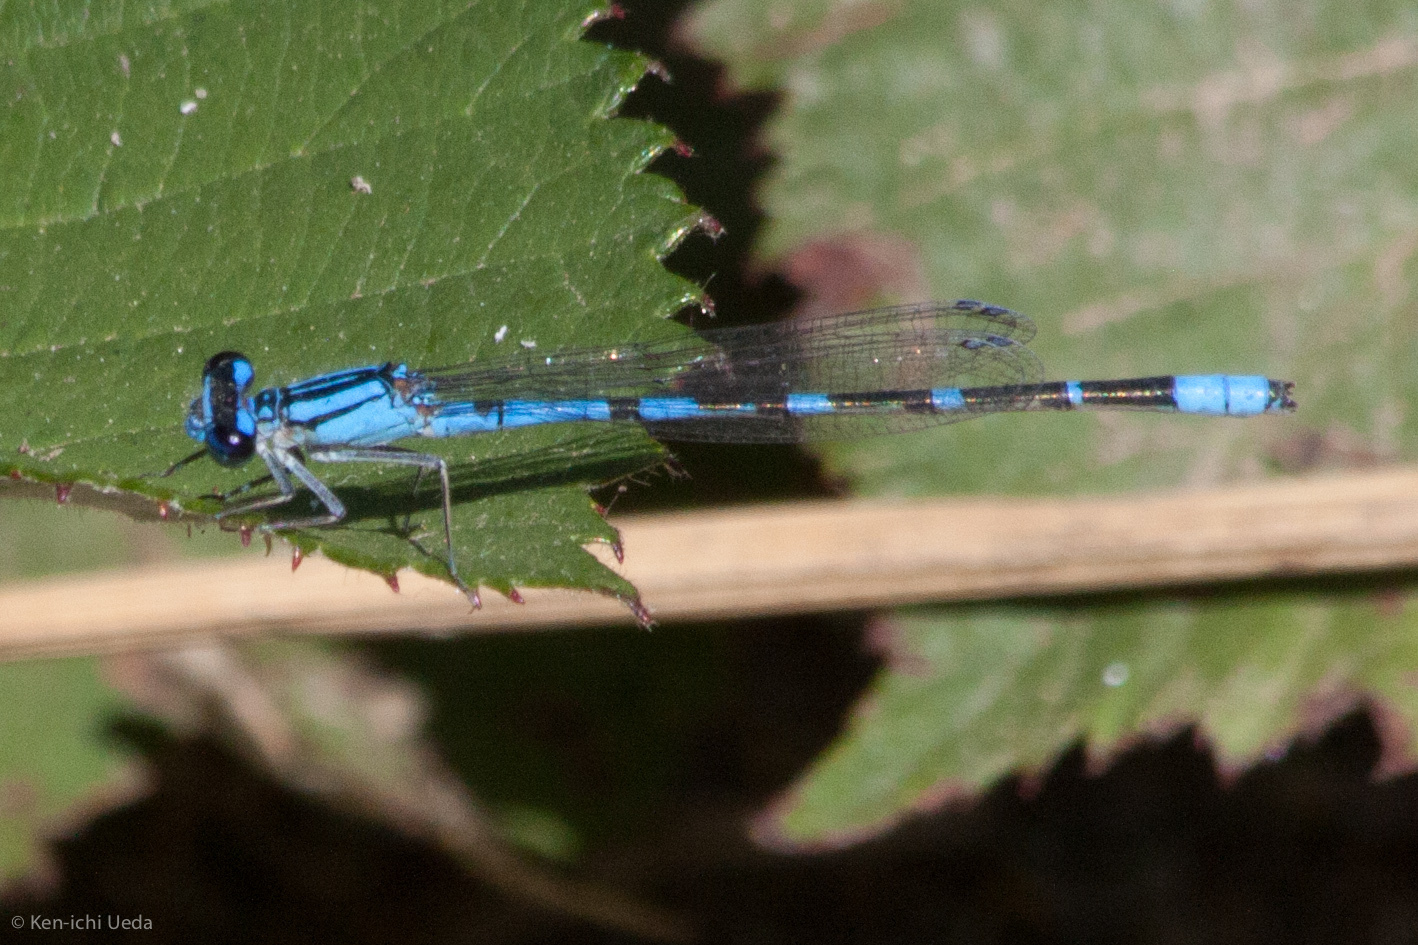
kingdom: Animalia
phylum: Arthropoda
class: Insecta
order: Odonata
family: Coenagrionidae
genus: Enallagma
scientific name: Enallagma praevarum
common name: Arroyo bluet
